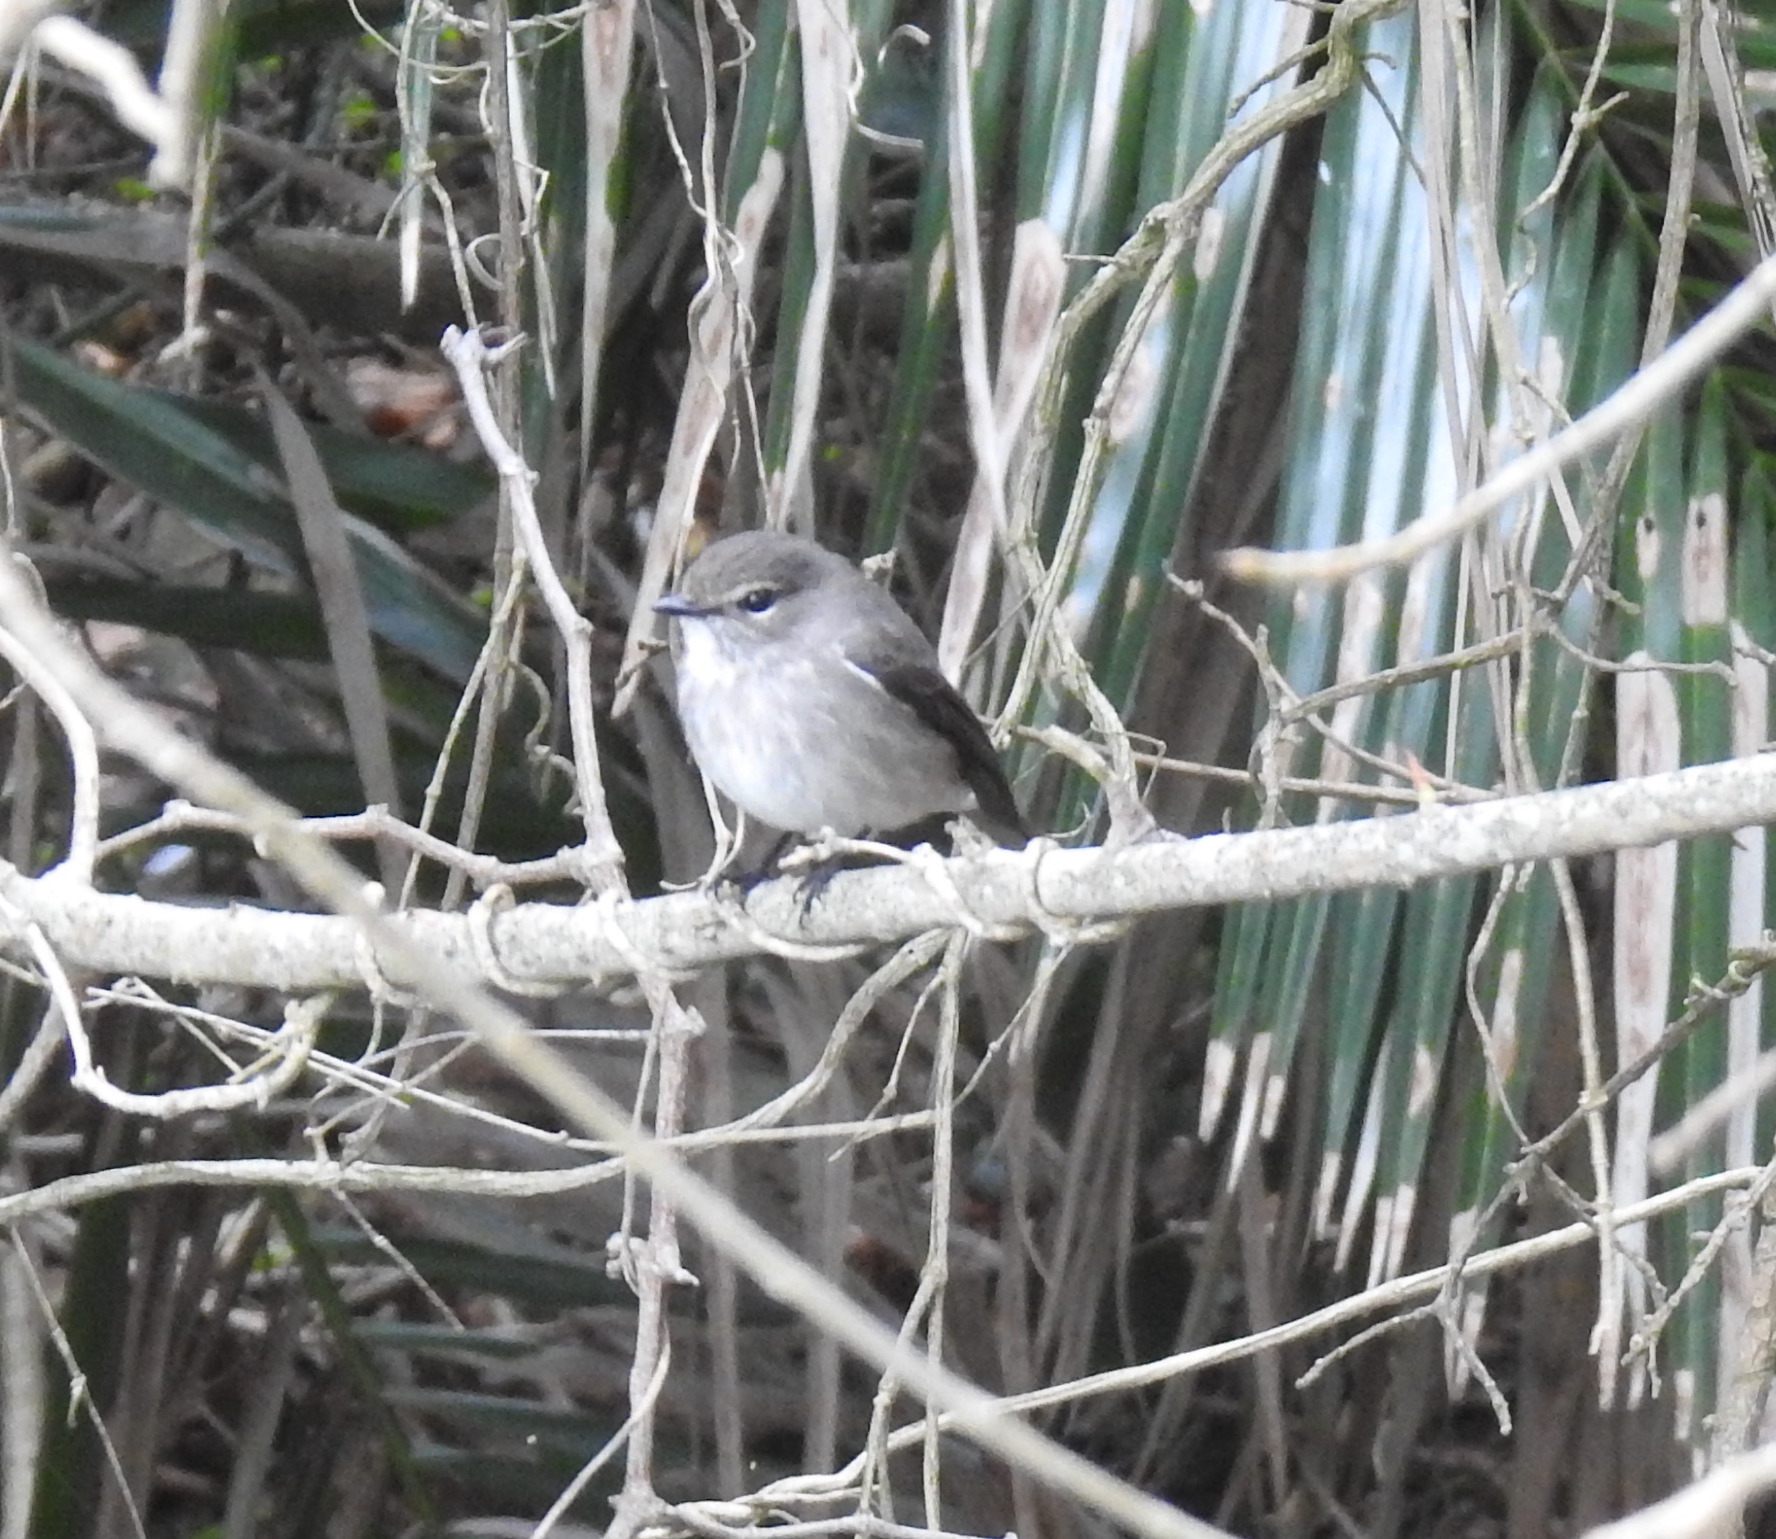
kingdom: Animalia
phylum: Chordata
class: Aves
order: Passeriformes
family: Muscicapidae
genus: Muscicapa
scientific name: Muscicapa adusta
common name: African dusky flycatcher
